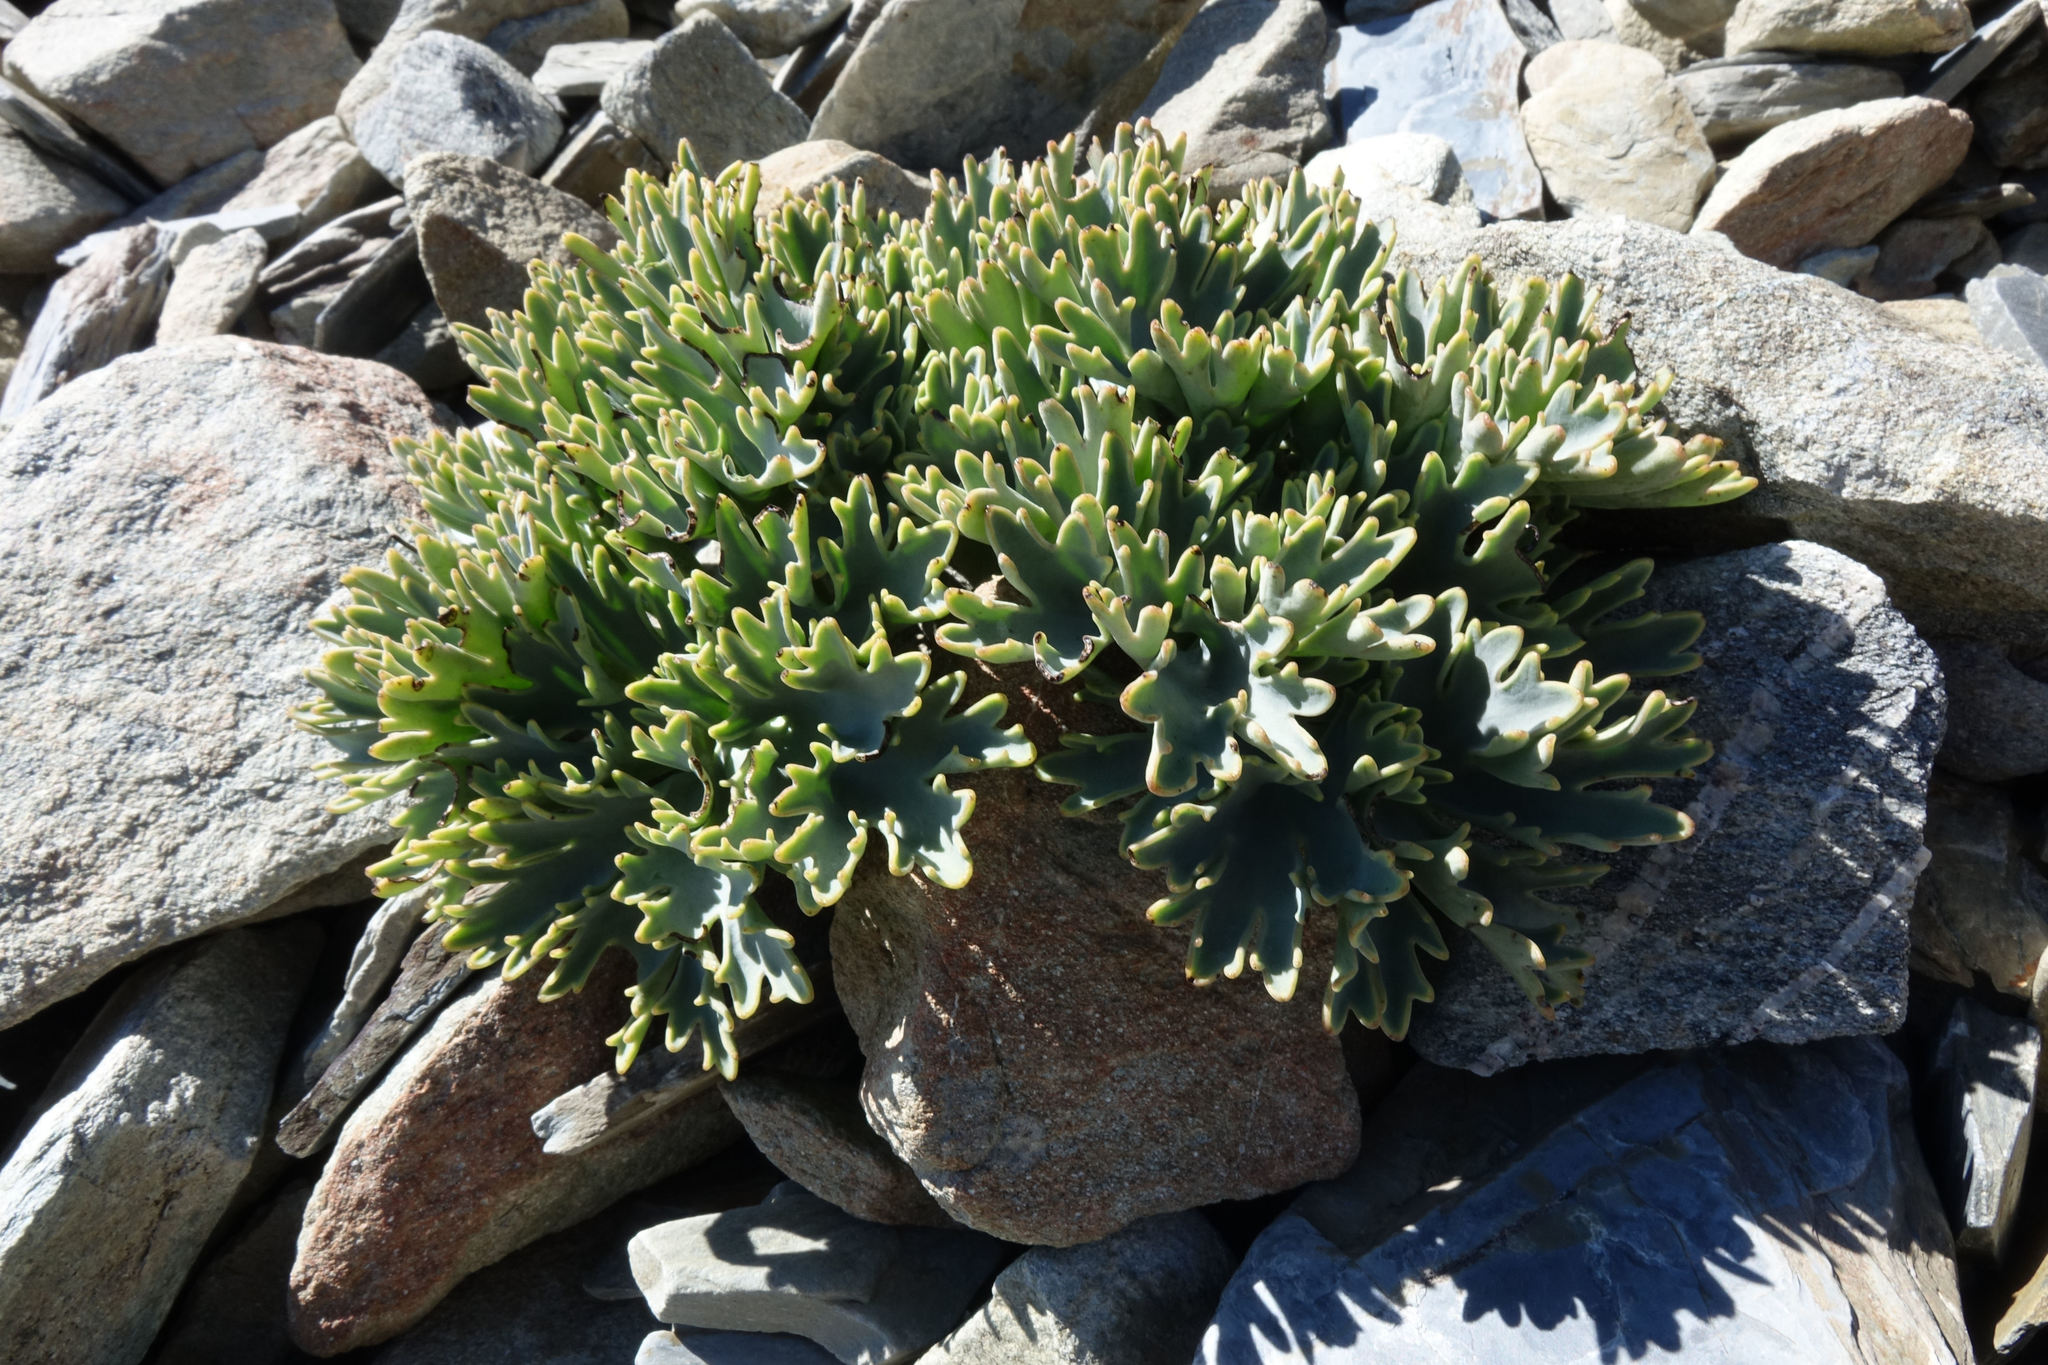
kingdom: Plantae
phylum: Tracheophyta
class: Magnoliopsida
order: Ranunculales
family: Ranunculaceae
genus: Ranunculus
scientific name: Ranunculus acraeus
